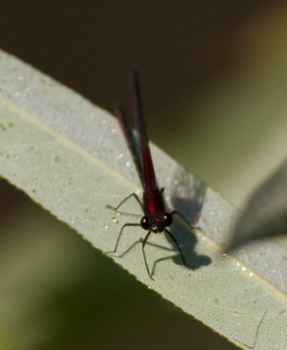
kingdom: Animalia
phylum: Arthropoda
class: Insecta
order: Odonata
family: Calopterygidae
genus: Hetaerina
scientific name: Hetaerina americana
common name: American rubyspot
